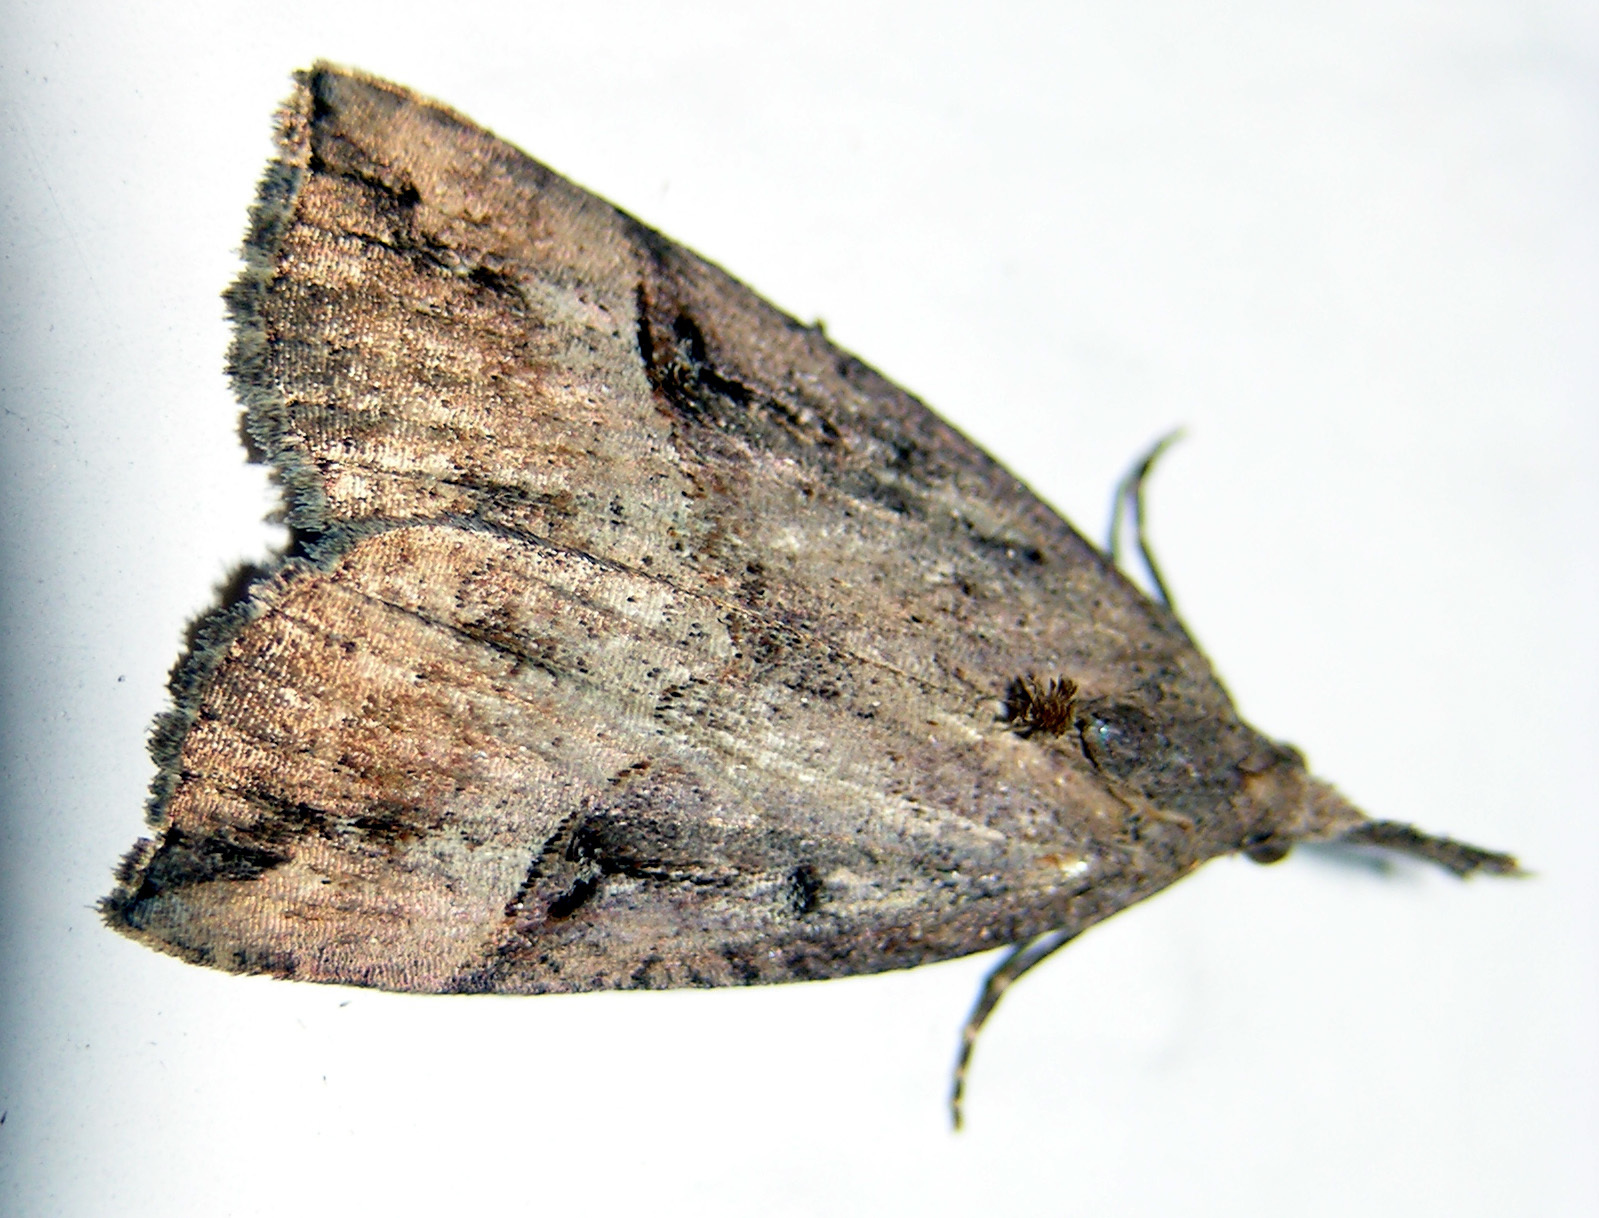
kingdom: Animalia
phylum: Arthropoda
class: Insecta
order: Lepidoptera
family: Erebidae
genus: Hypena
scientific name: Hypena rostralis
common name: Buttoned snout
